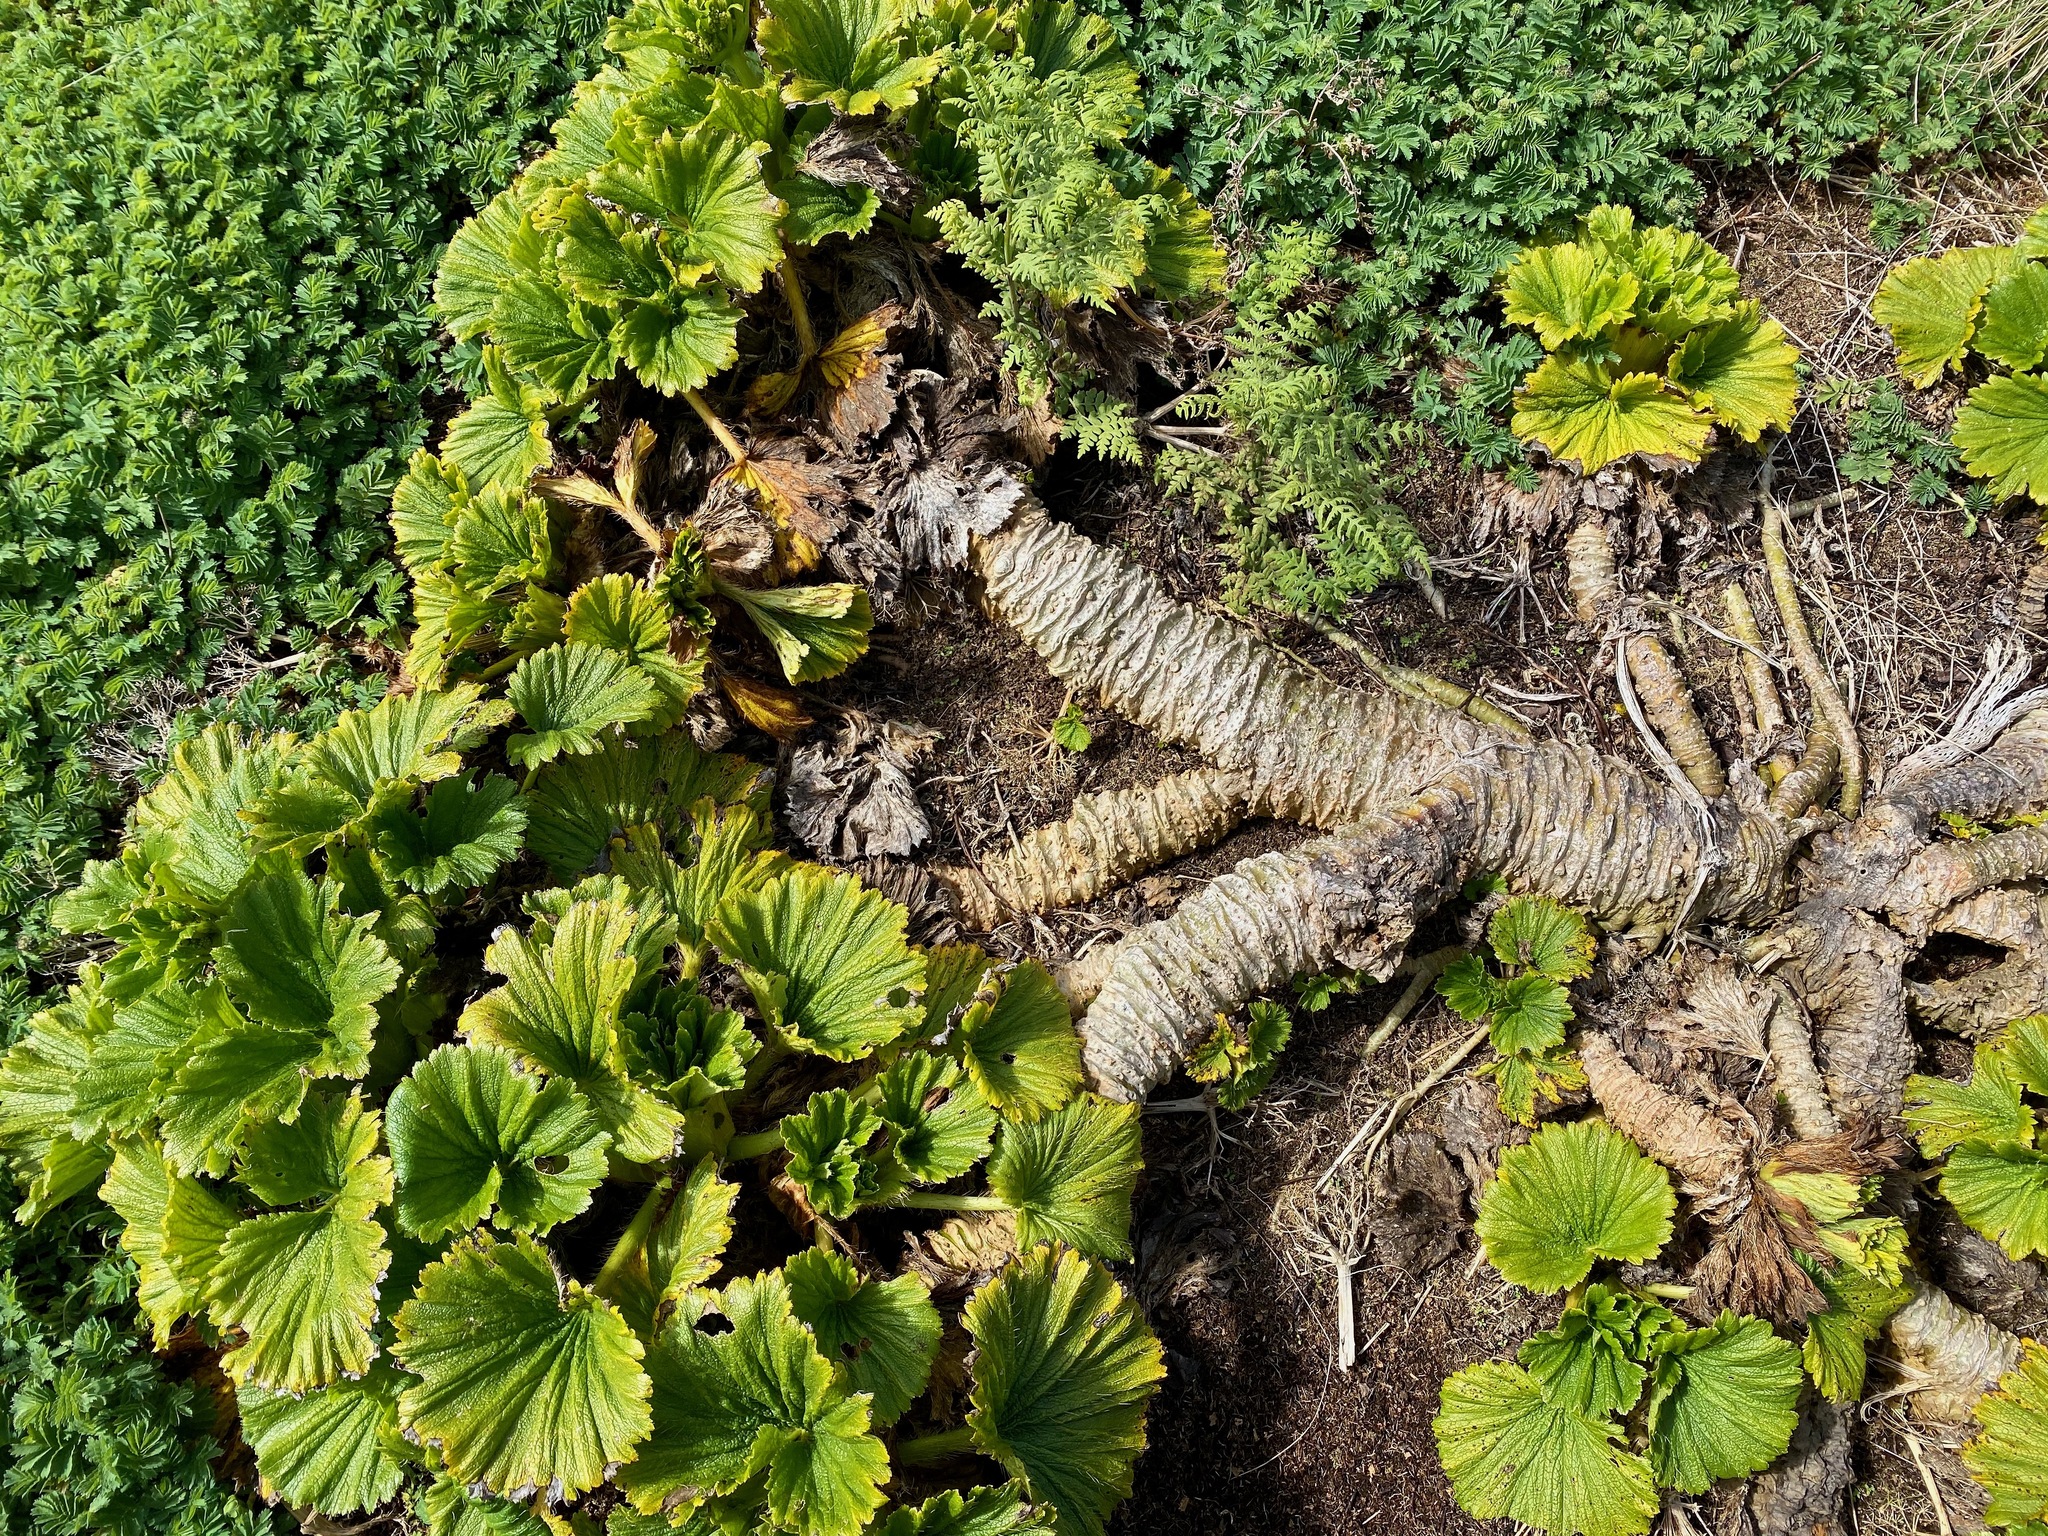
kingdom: Plantae
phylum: Tracheophyta
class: Magnoliopsida
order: Apiales
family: Apiaceae
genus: Azorella
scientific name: Azorella polaris
